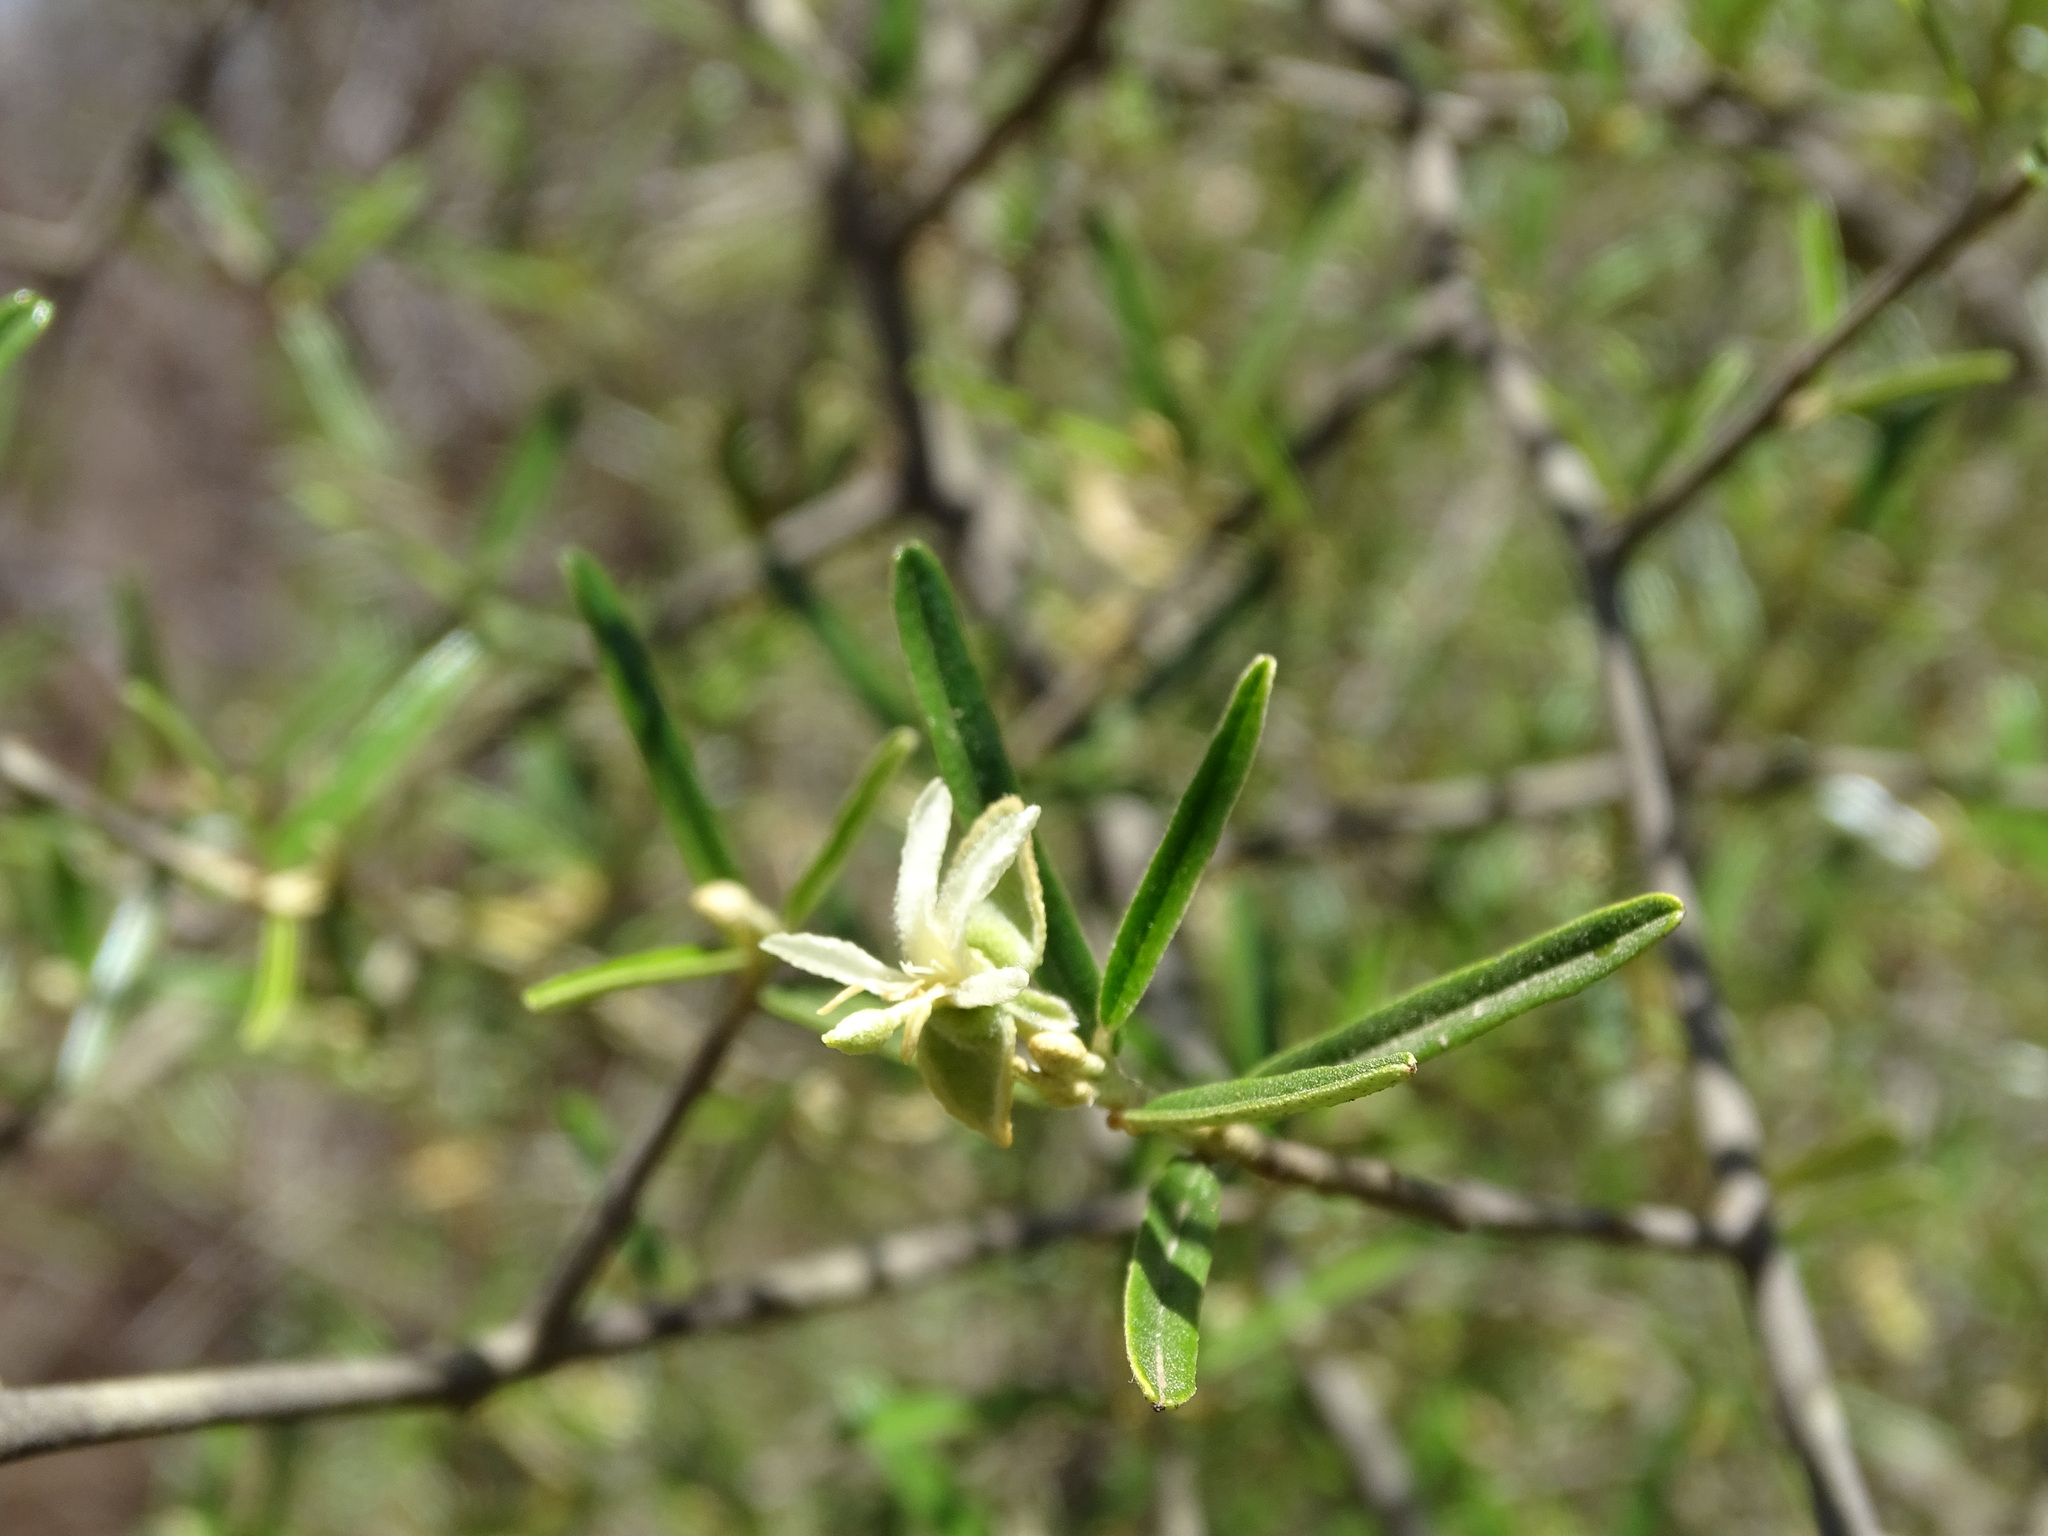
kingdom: Plantae
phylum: Tracheophyta
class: Magnoliopsida
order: Brassicales
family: Capparaceae
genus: Atamisquea
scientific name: Atamisquea emarginata
